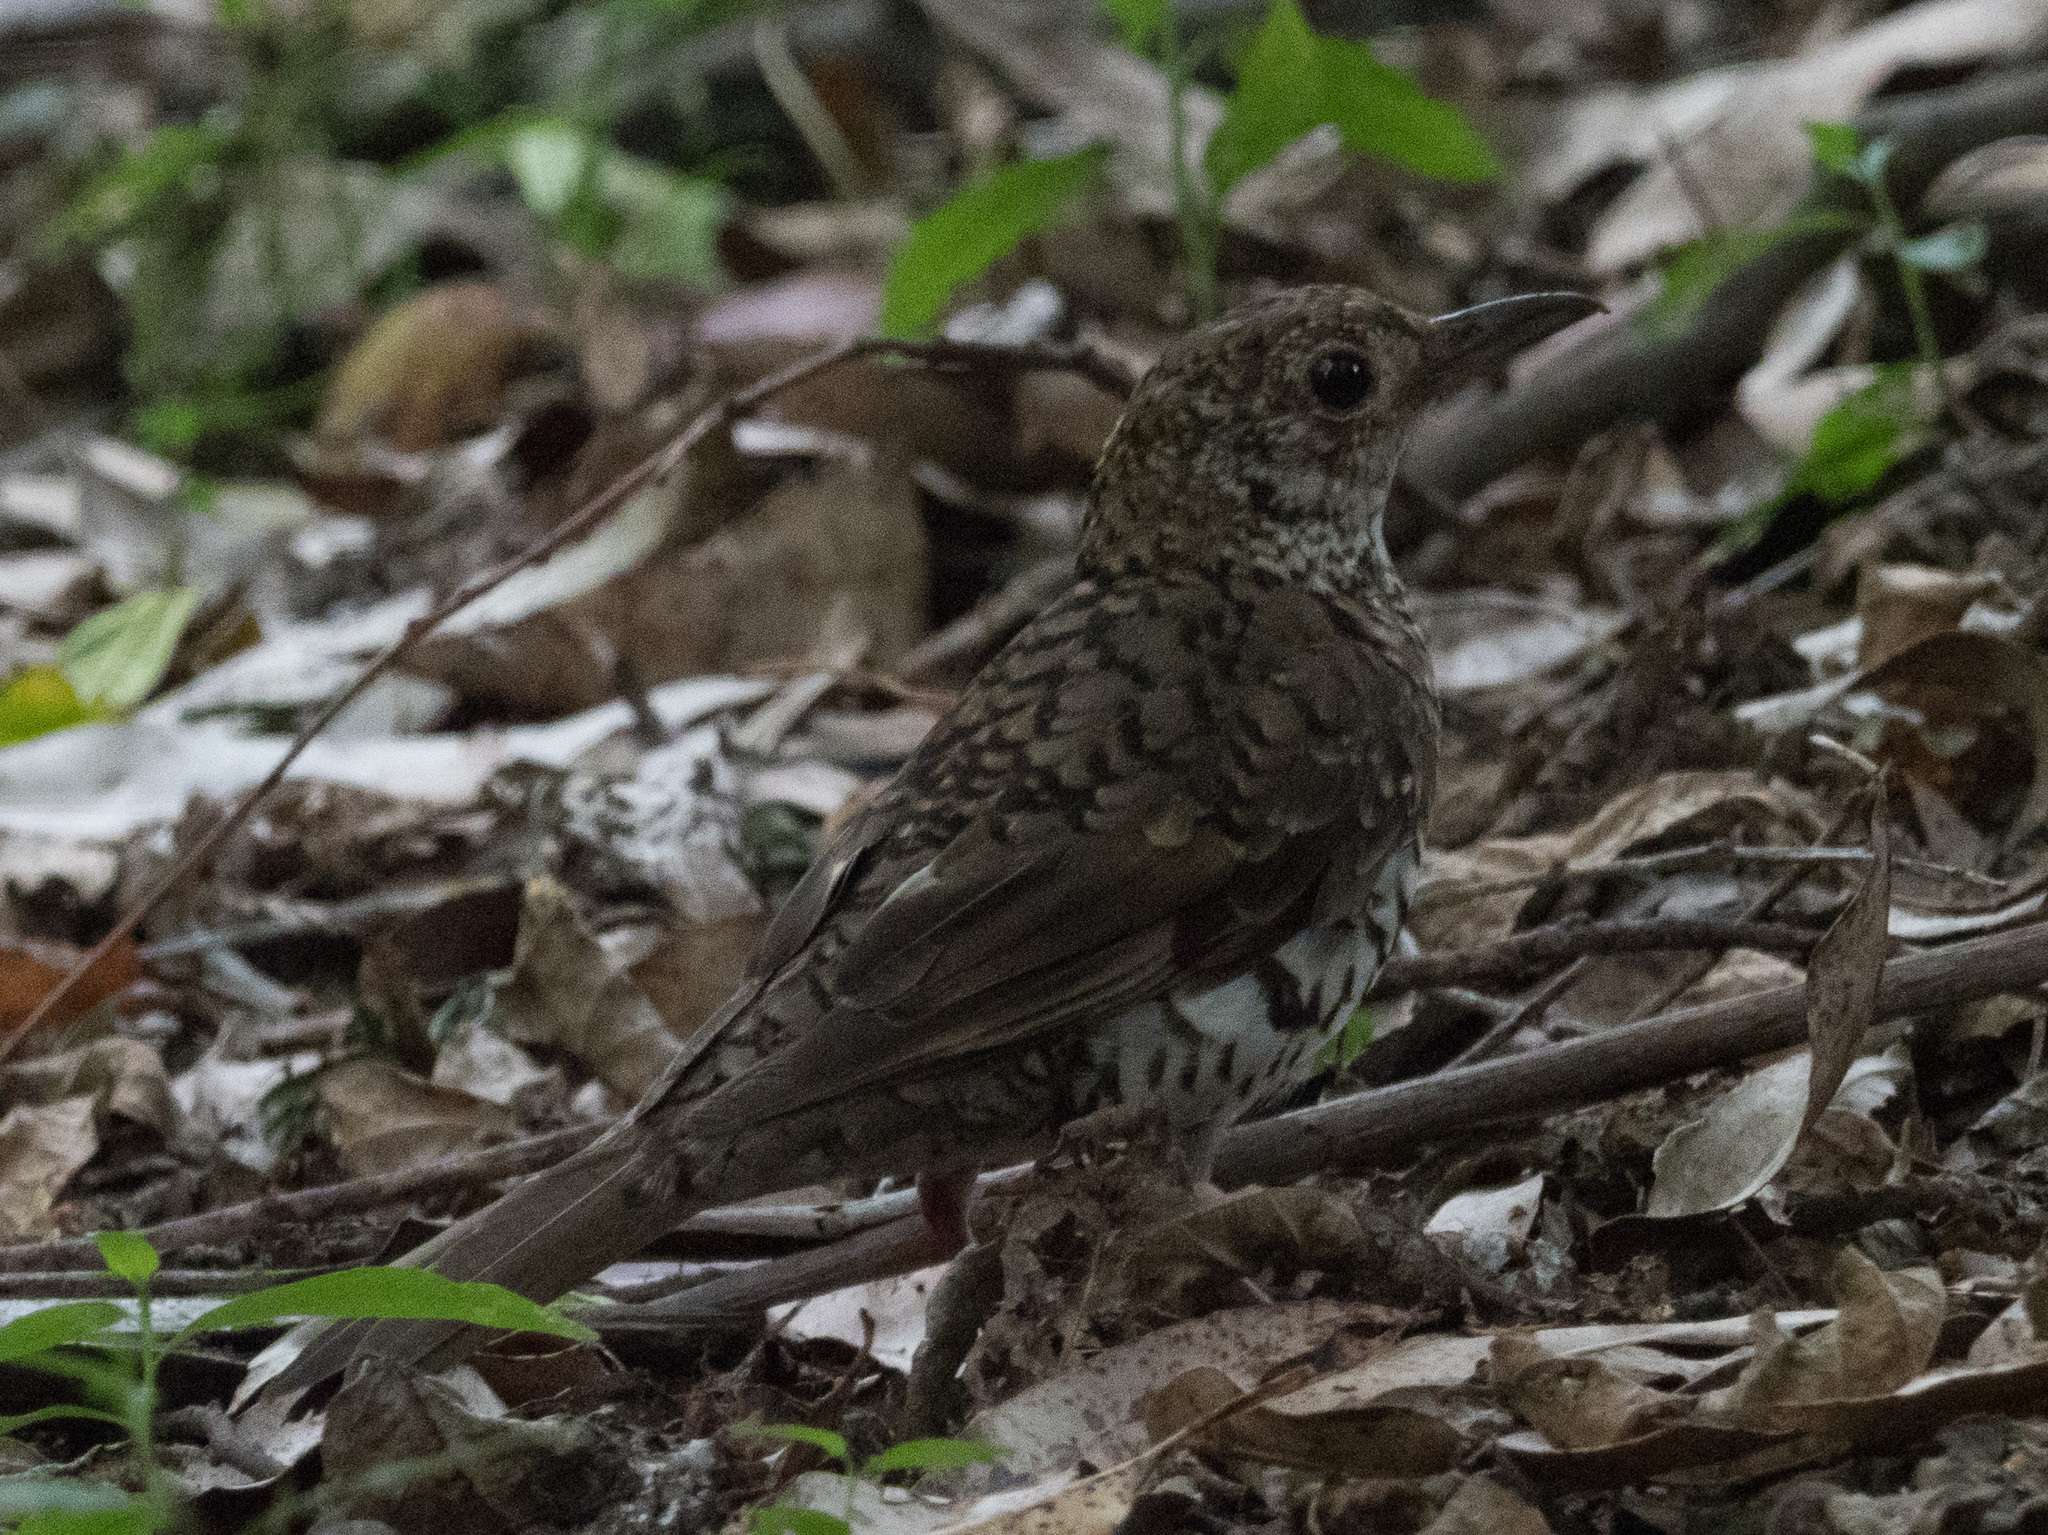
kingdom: Animalia
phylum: Chordata
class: Aves
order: Passeriformes
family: Turdidae
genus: Zoothera
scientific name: Zoothera lunulata
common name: Bassian thrush
